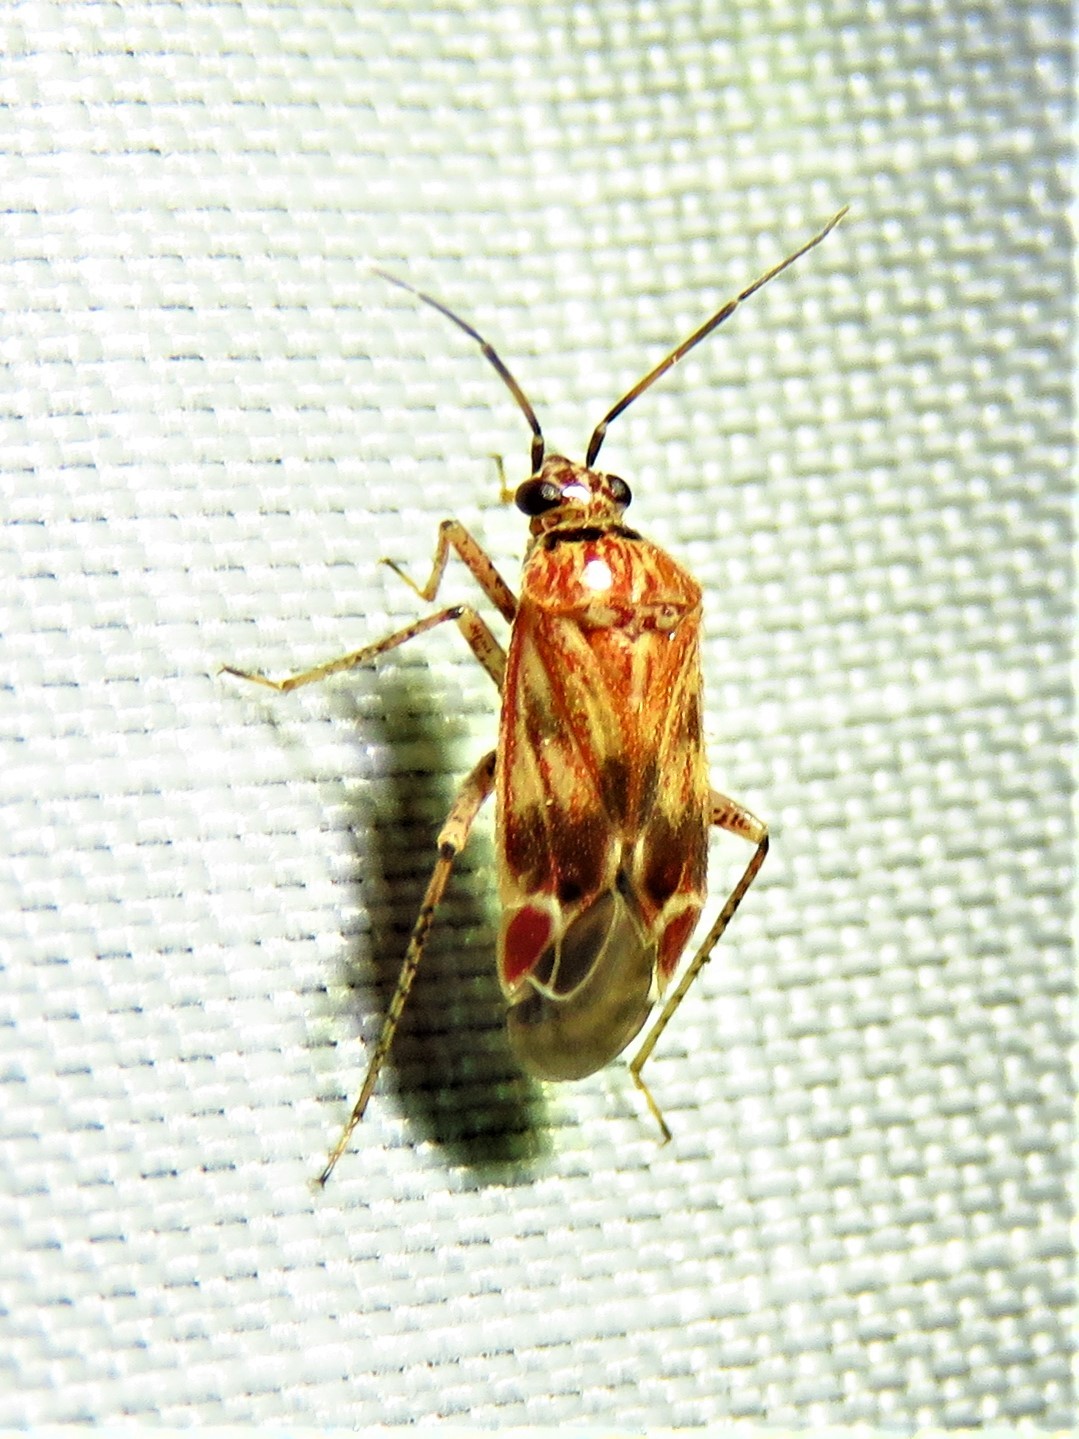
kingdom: Animalia
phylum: Arthropoda
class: Insecta
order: Hemiptera
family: Miridae
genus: Plagiognathus
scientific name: Plagiognathus grandis
